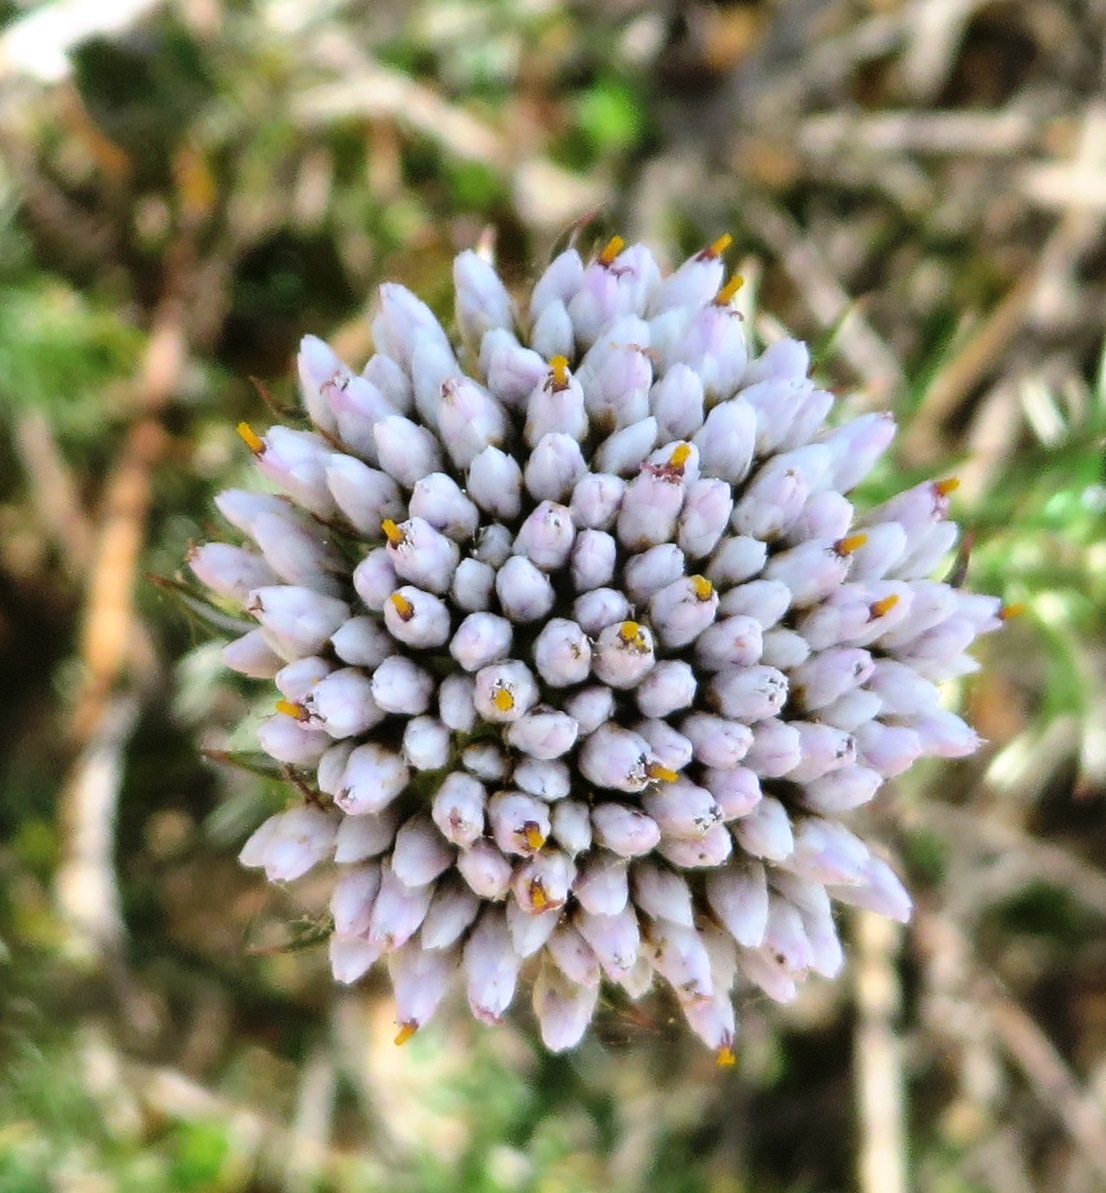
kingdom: Plantae
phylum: Tracheophyta
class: Magnoliopsida
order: Asterales
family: Asteraceae
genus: Metalasia
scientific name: Metalasia fastigiata
